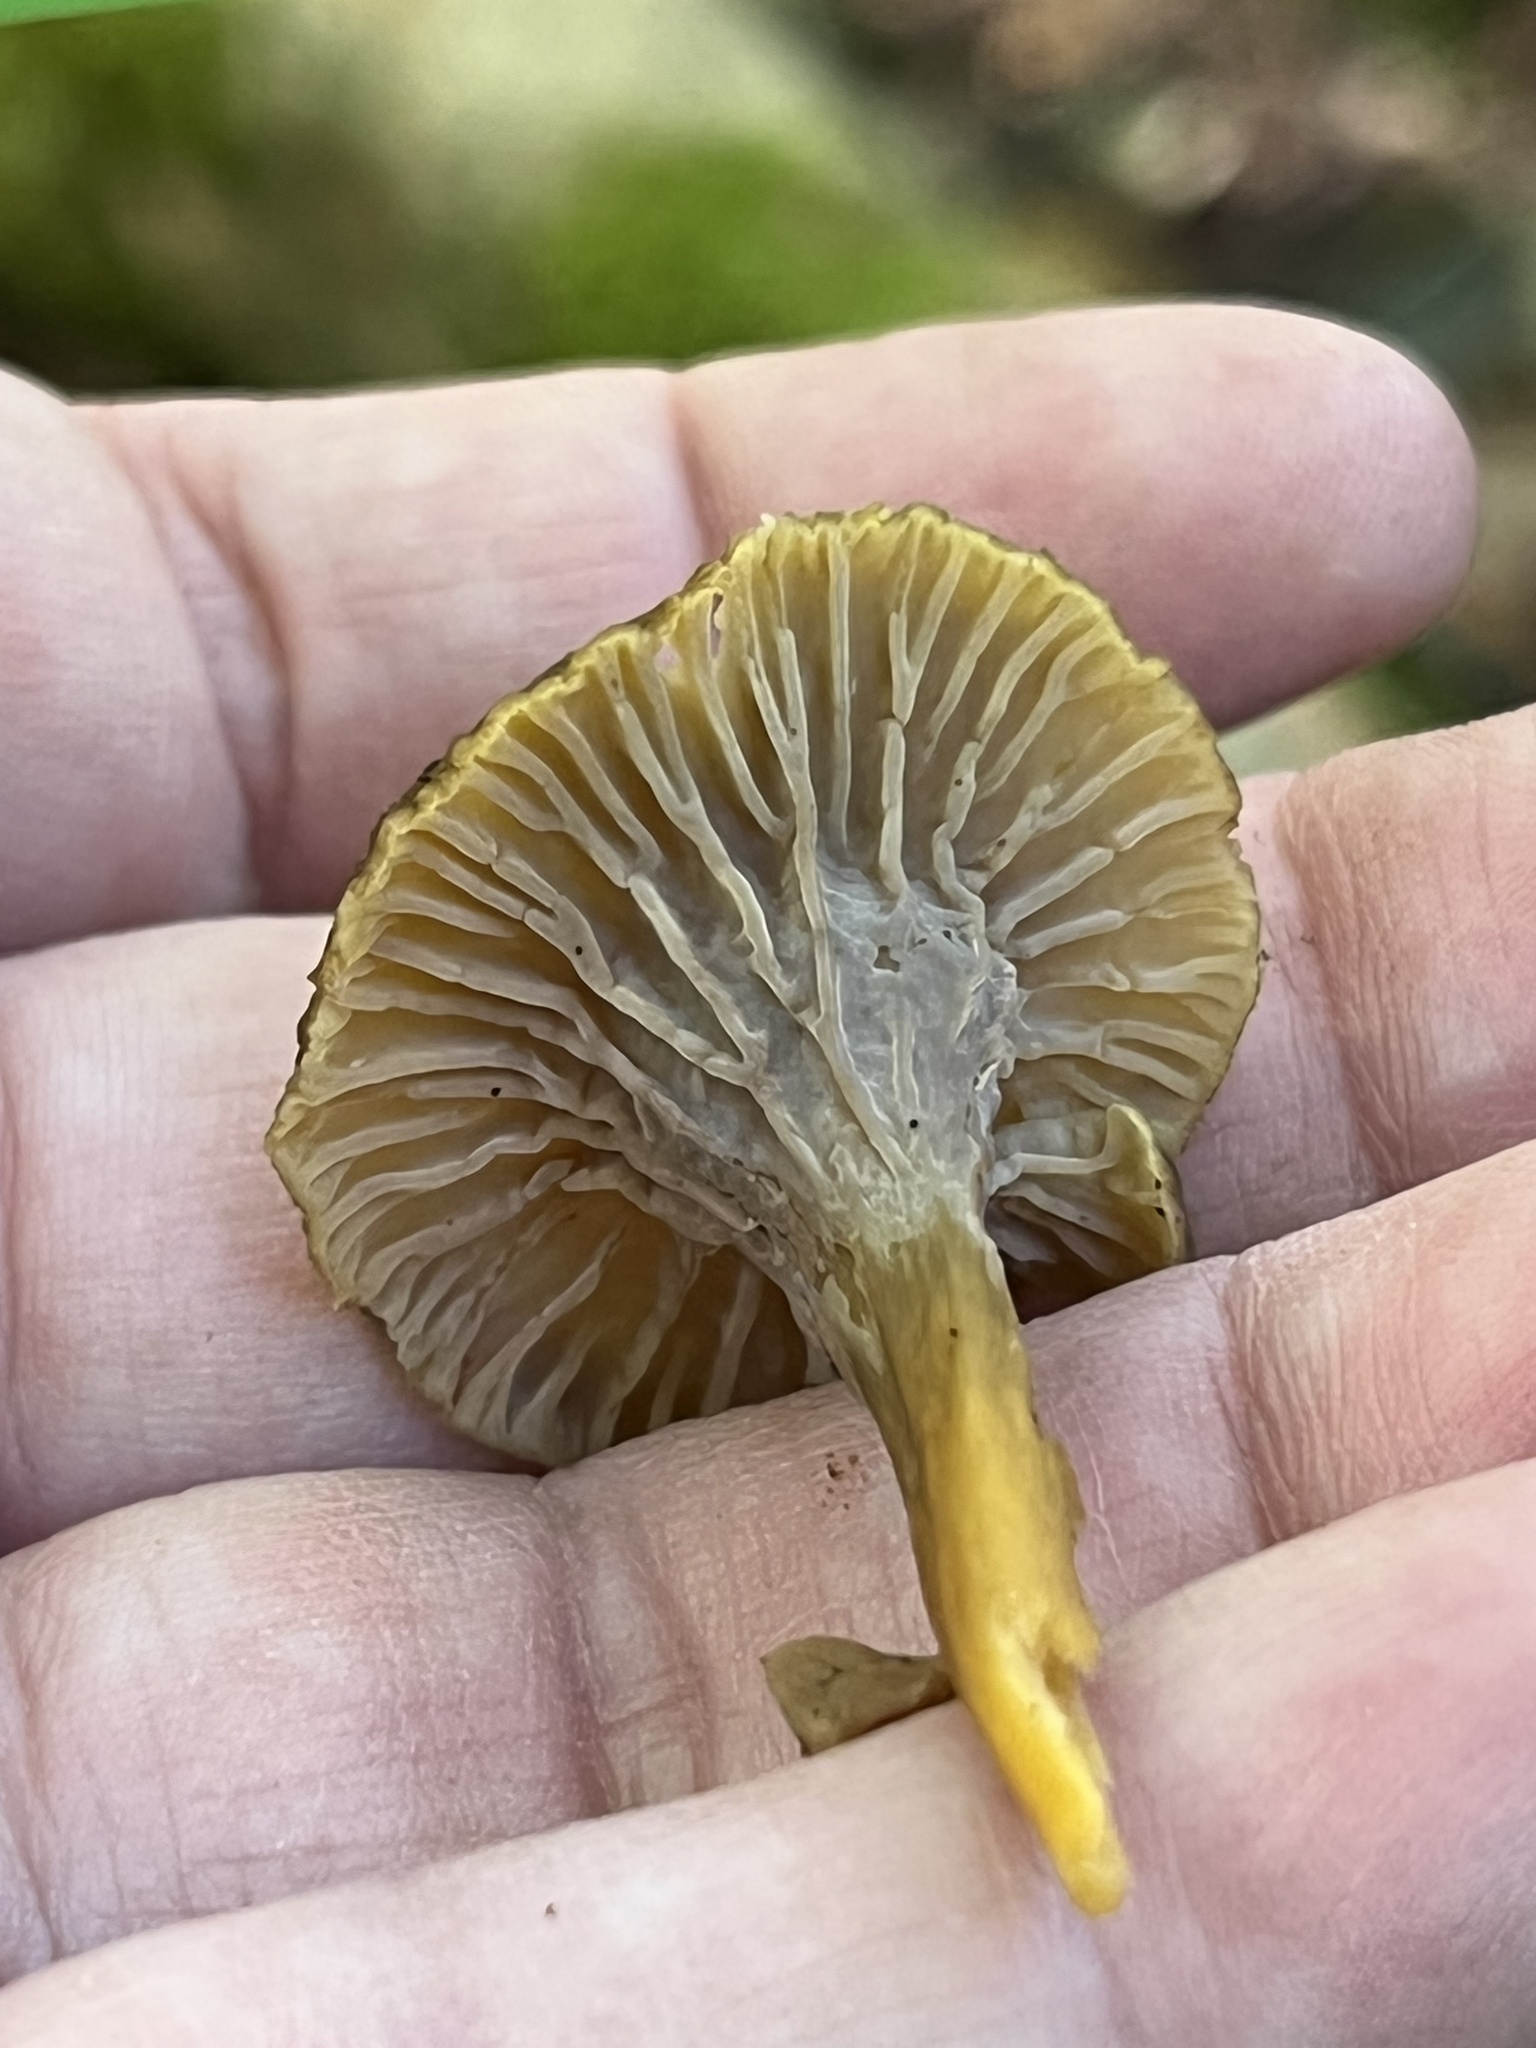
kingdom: Fungi
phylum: Basidiomycota
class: Agaricomycetes
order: Cantharellales
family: Hydnaceae
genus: Craterellus
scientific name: Craterellus tubaeformis
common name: Yellowfoot
